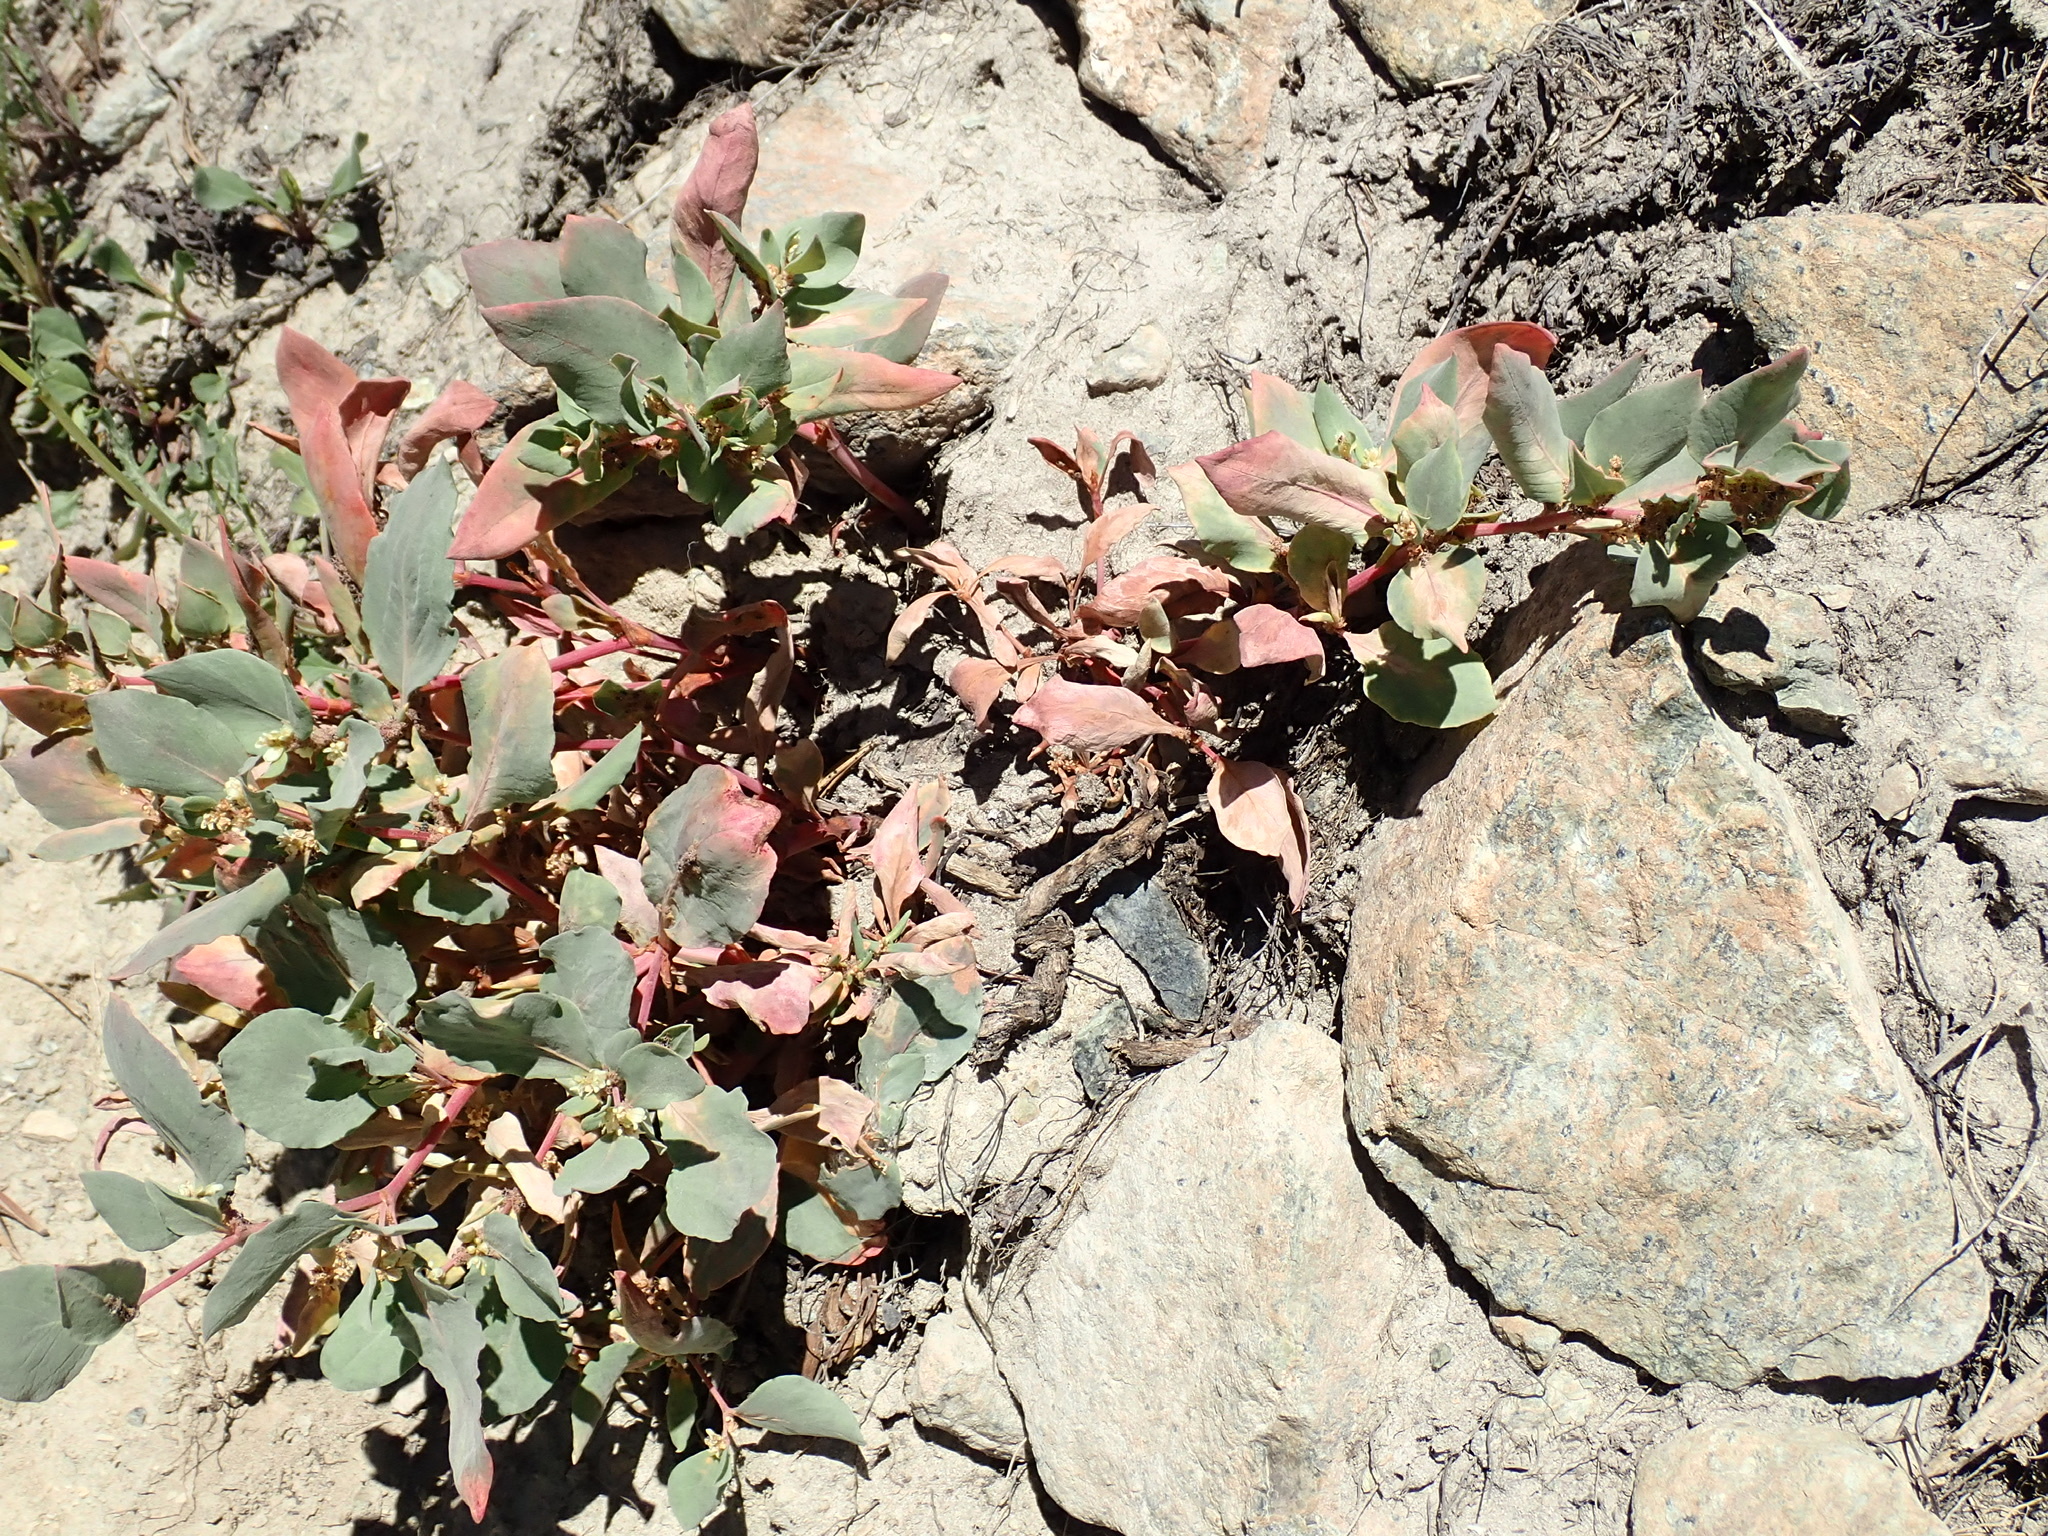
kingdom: Plantae
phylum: Tracheophyta
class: Magnoliopsida
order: Caryophyllales
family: Polygonaceae
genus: Koenigia
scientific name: Koenigia davisiae
